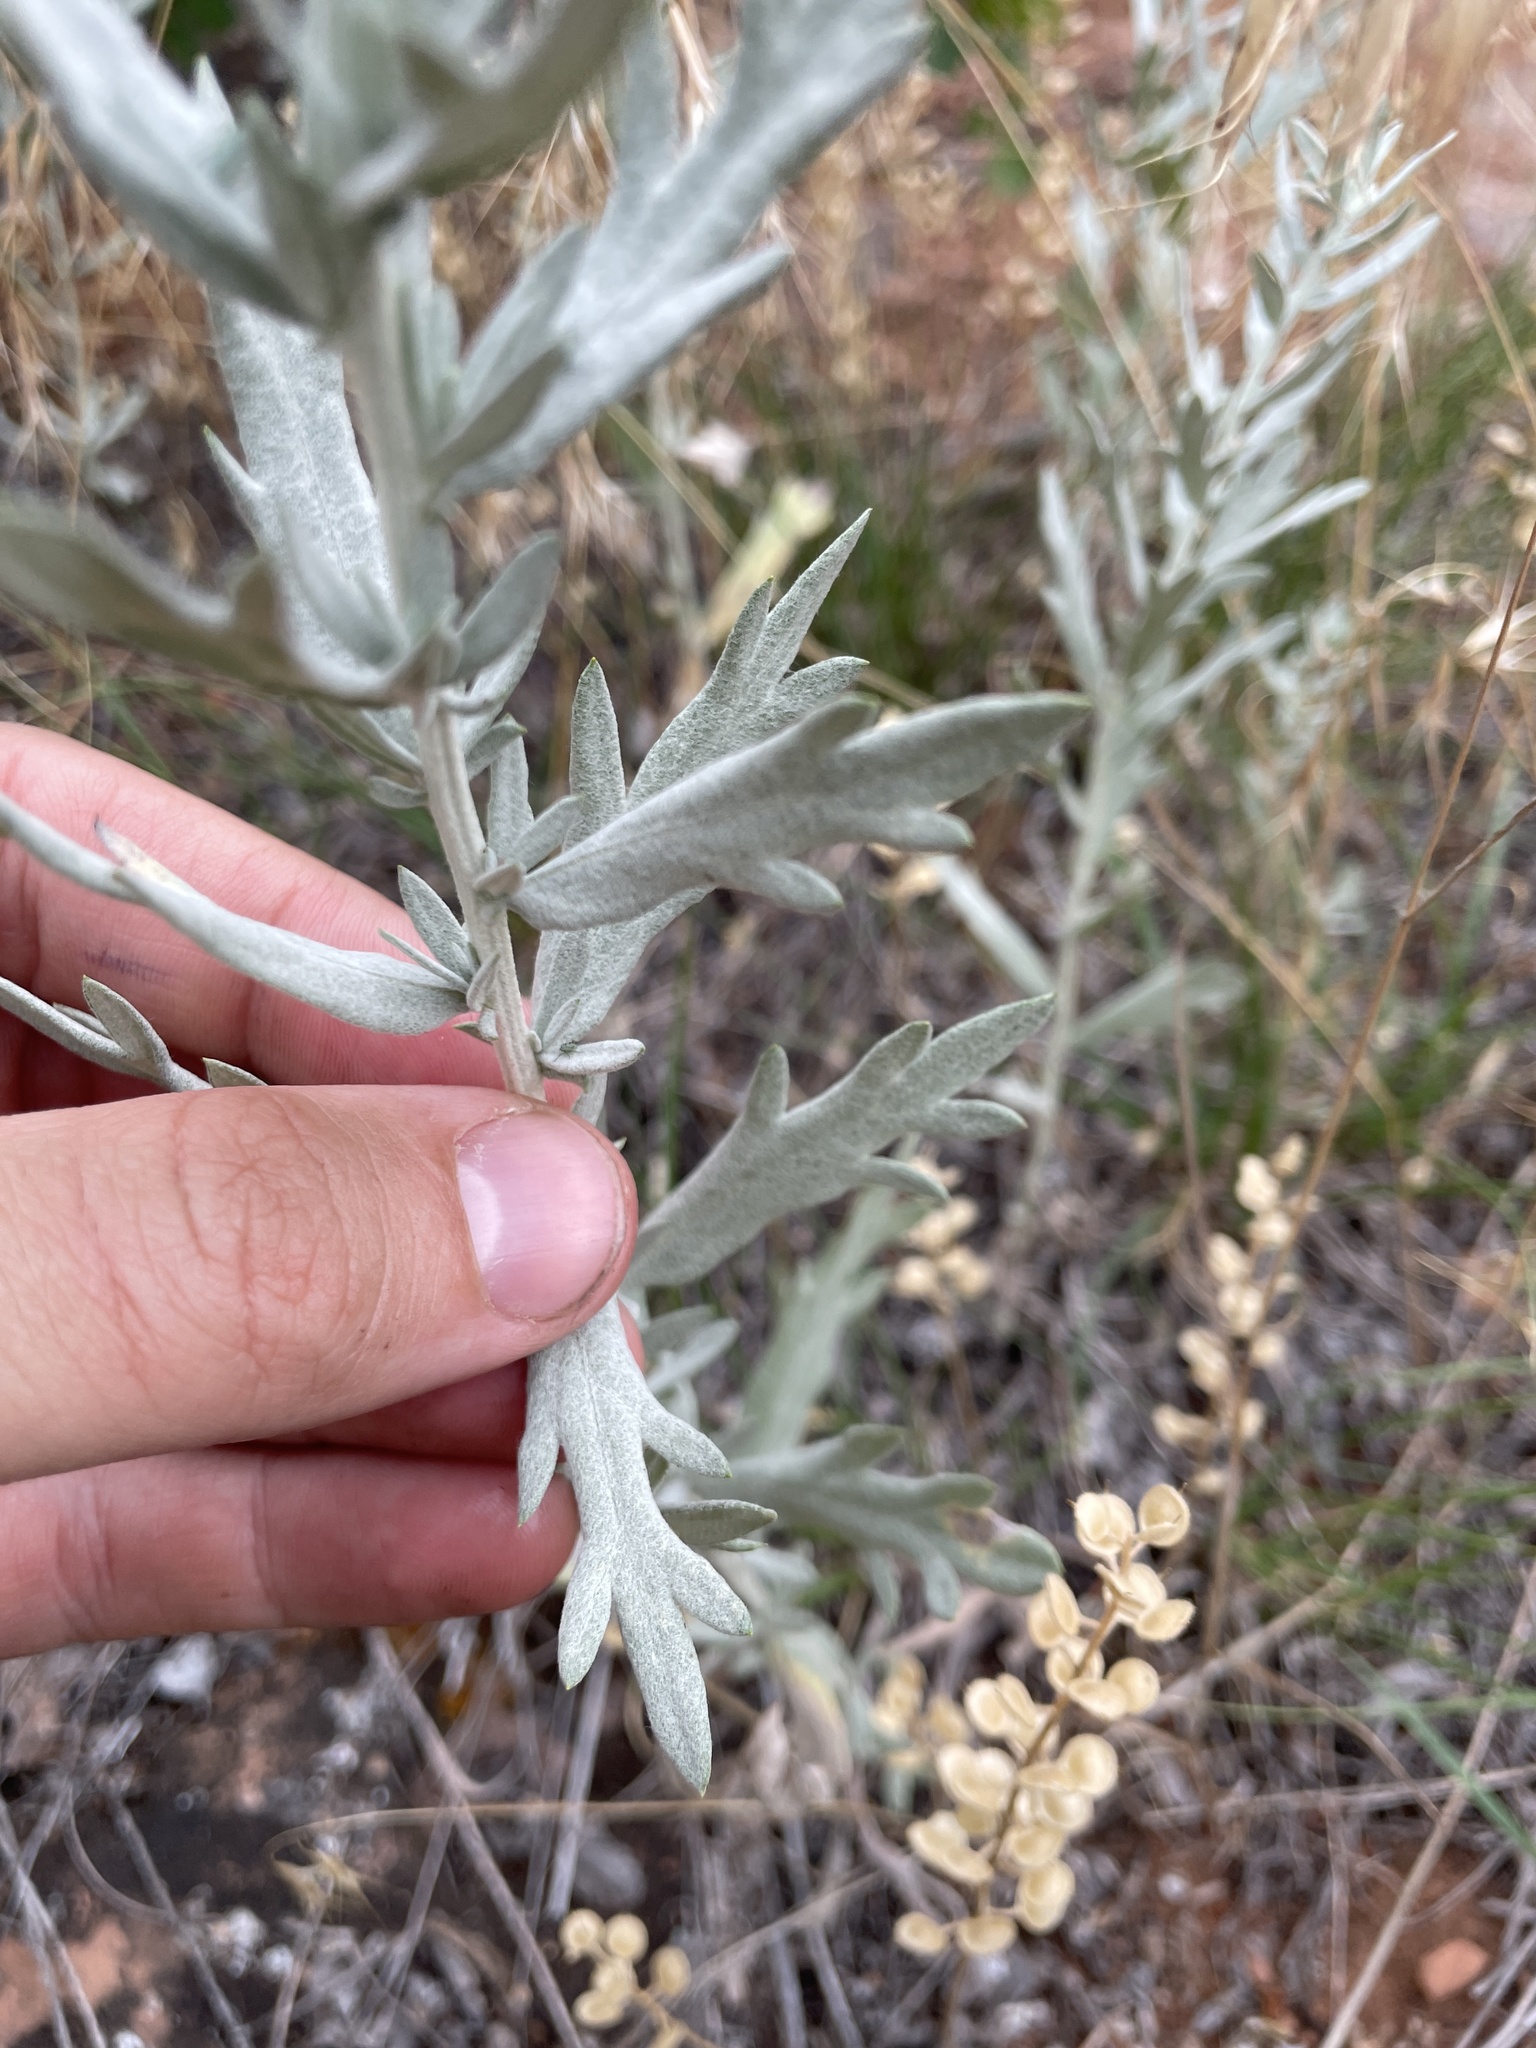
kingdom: Plantae
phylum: Tracheophyta
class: Magnoliopsida
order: Asterales
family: Asteraceae
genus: Artemisia
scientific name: Artemisia ludoviciana
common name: Western mugwort
